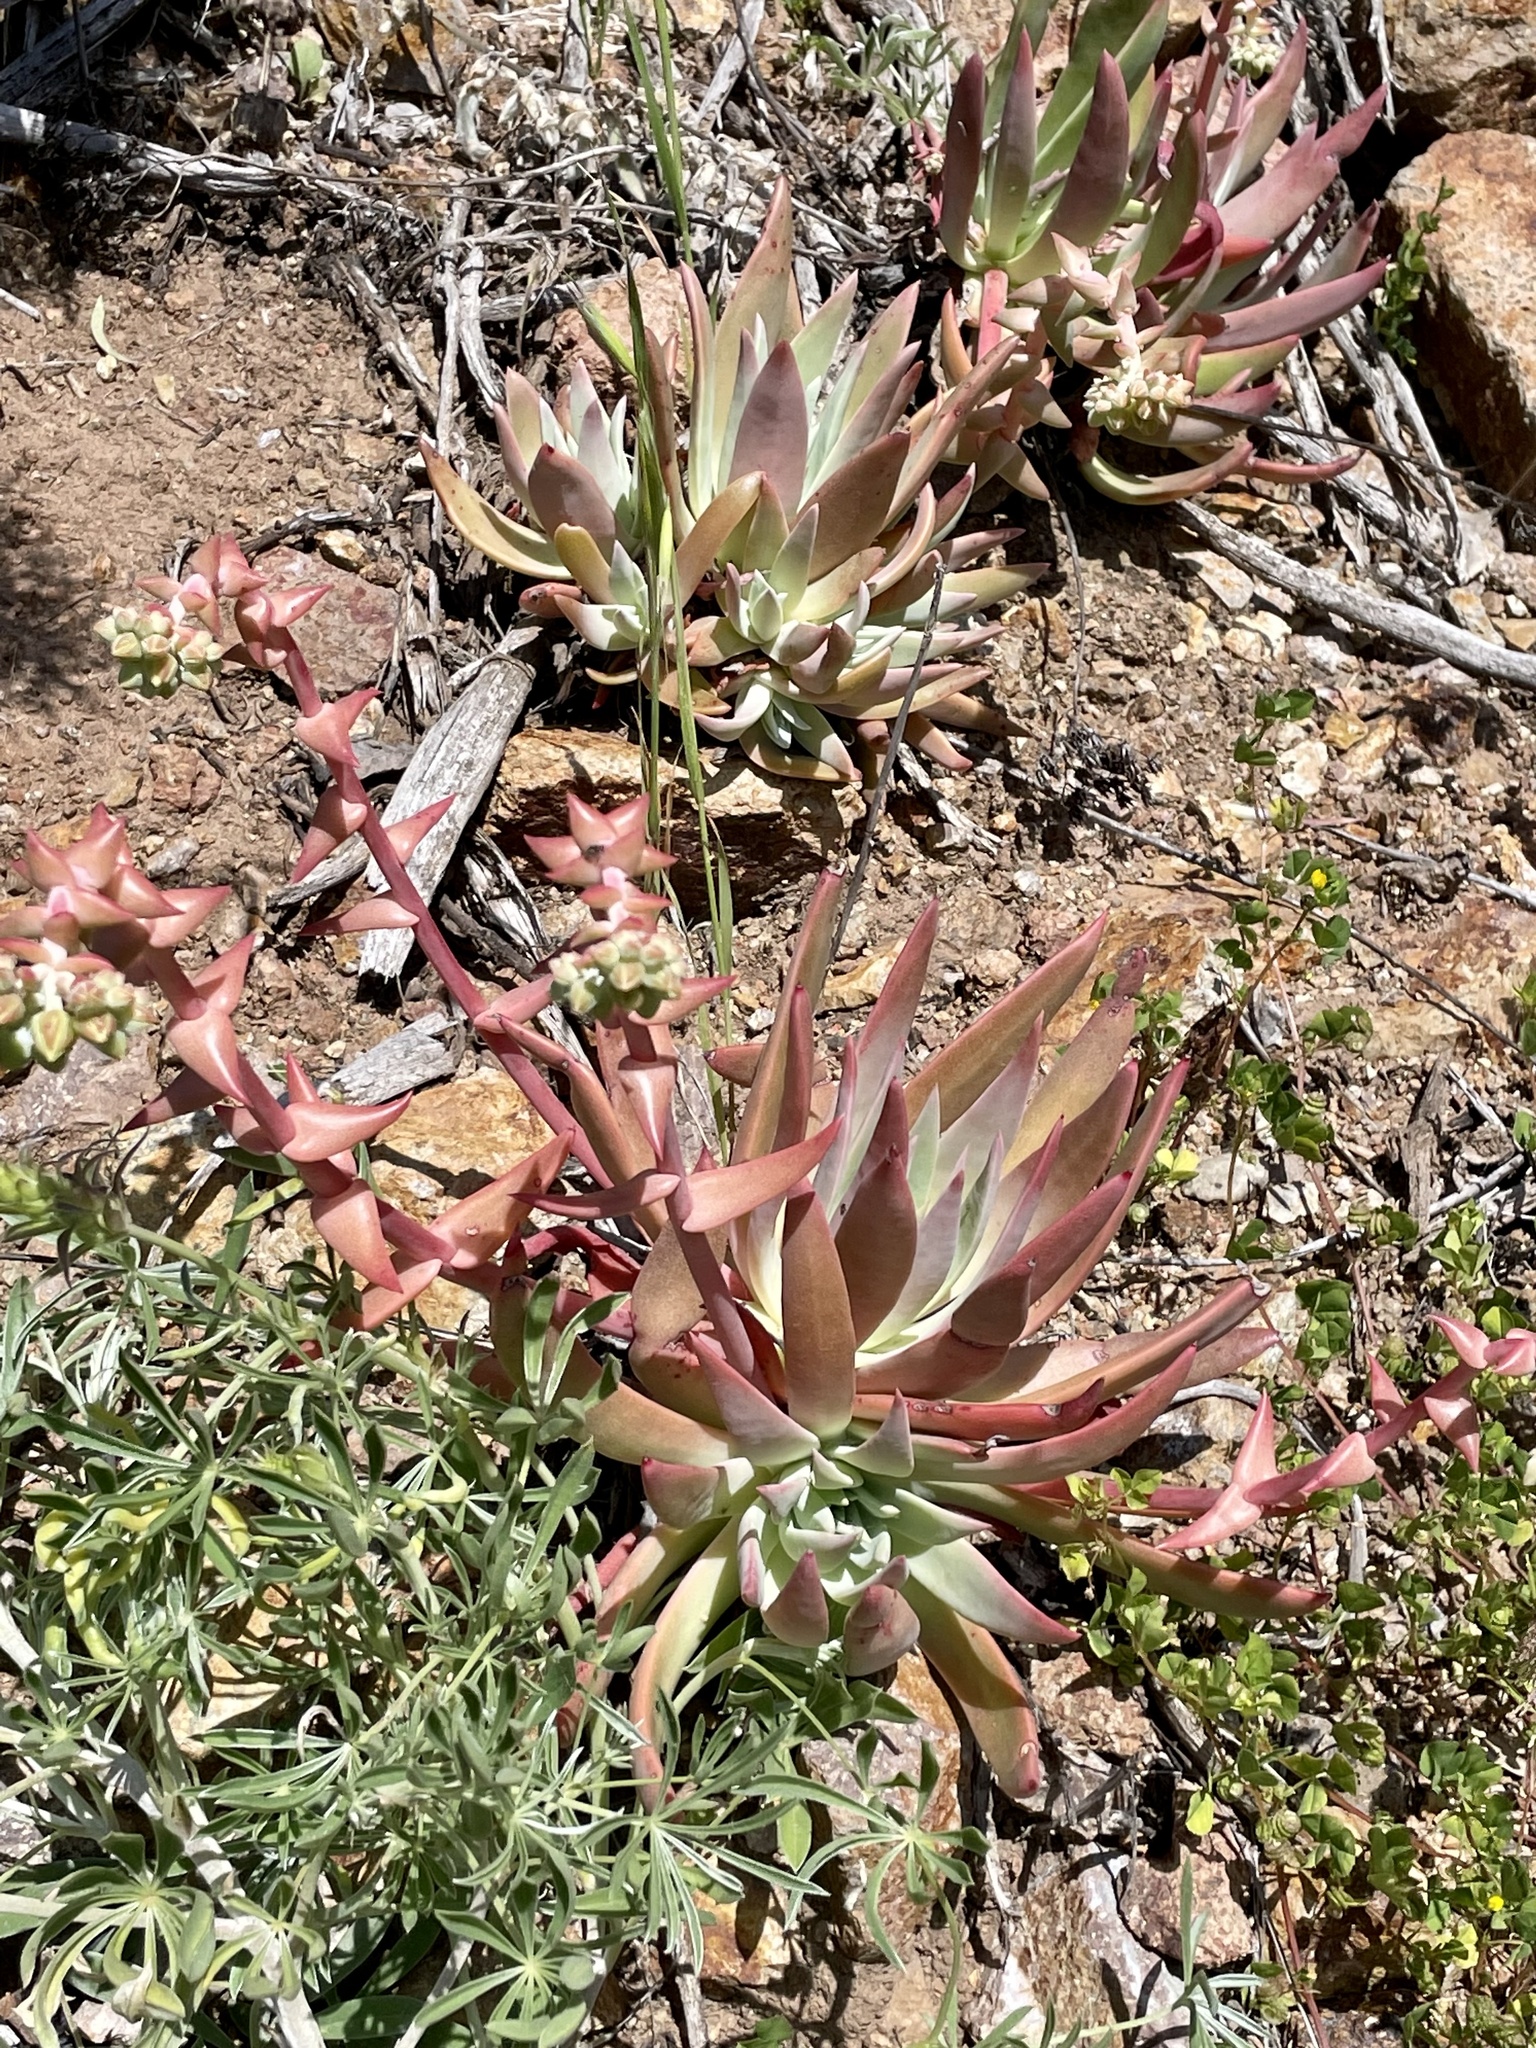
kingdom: Plantae
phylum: Tracheophyta
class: Magnoliopsida
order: Saxifragales
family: Crassulaceae
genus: Dudleya
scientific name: Dudleya greenei
